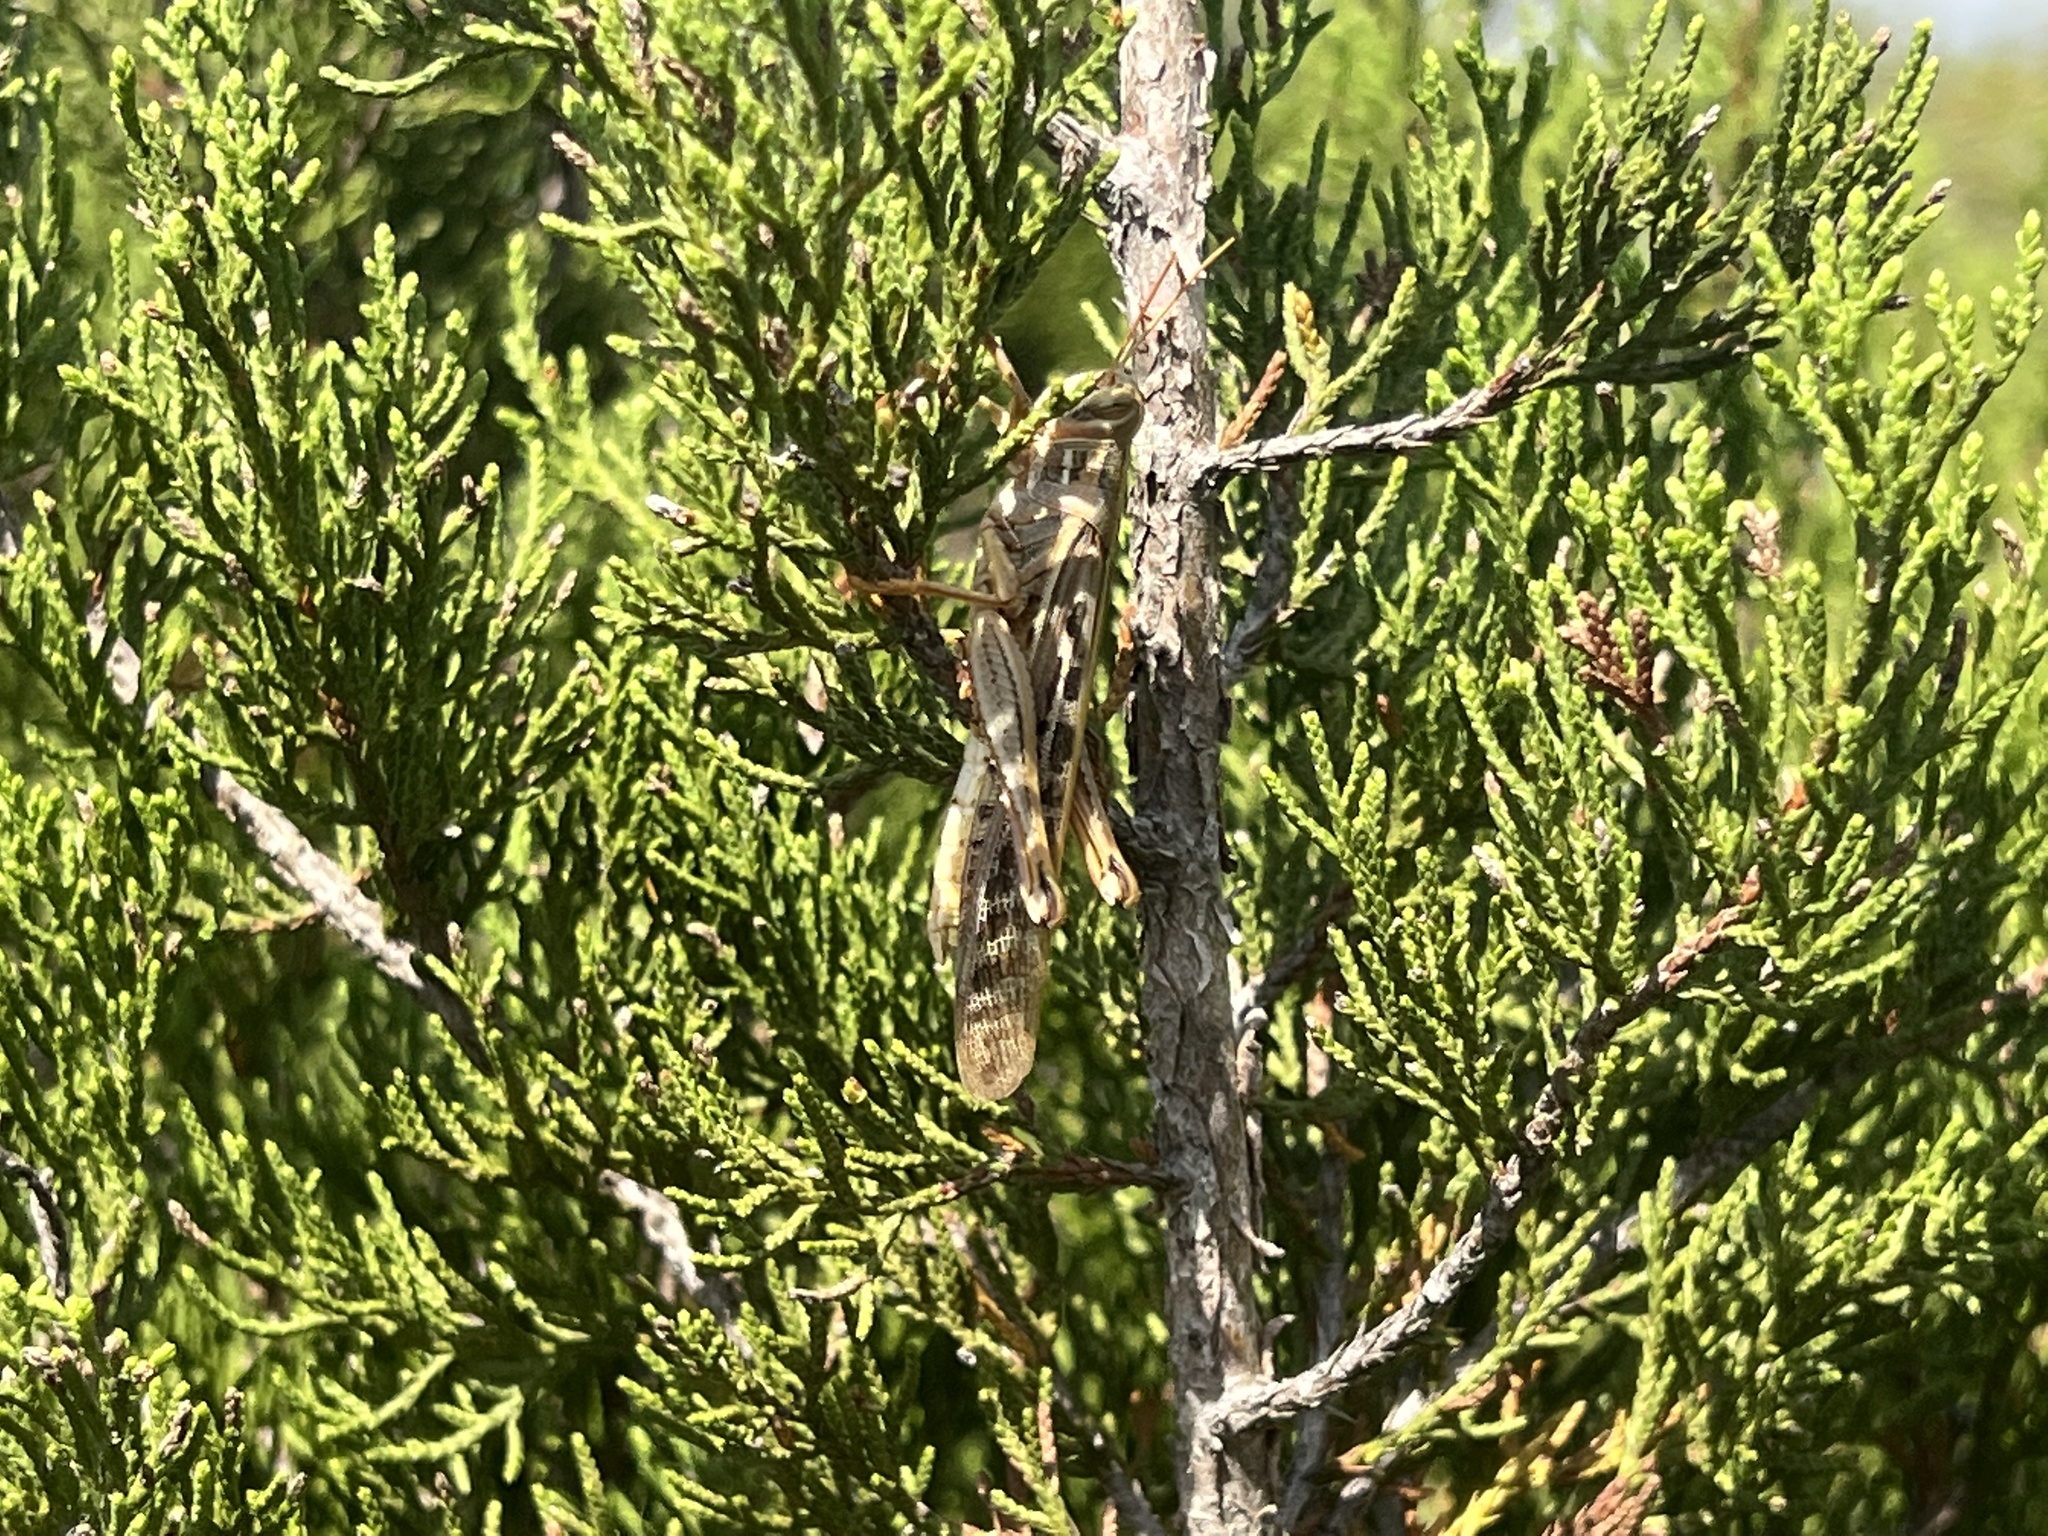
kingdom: Animalia
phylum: Arthropoda
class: Insecta
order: Orthoptera
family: Acrididae
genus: Schistocerca
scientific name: Schistocerca americana
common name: American bird locust
